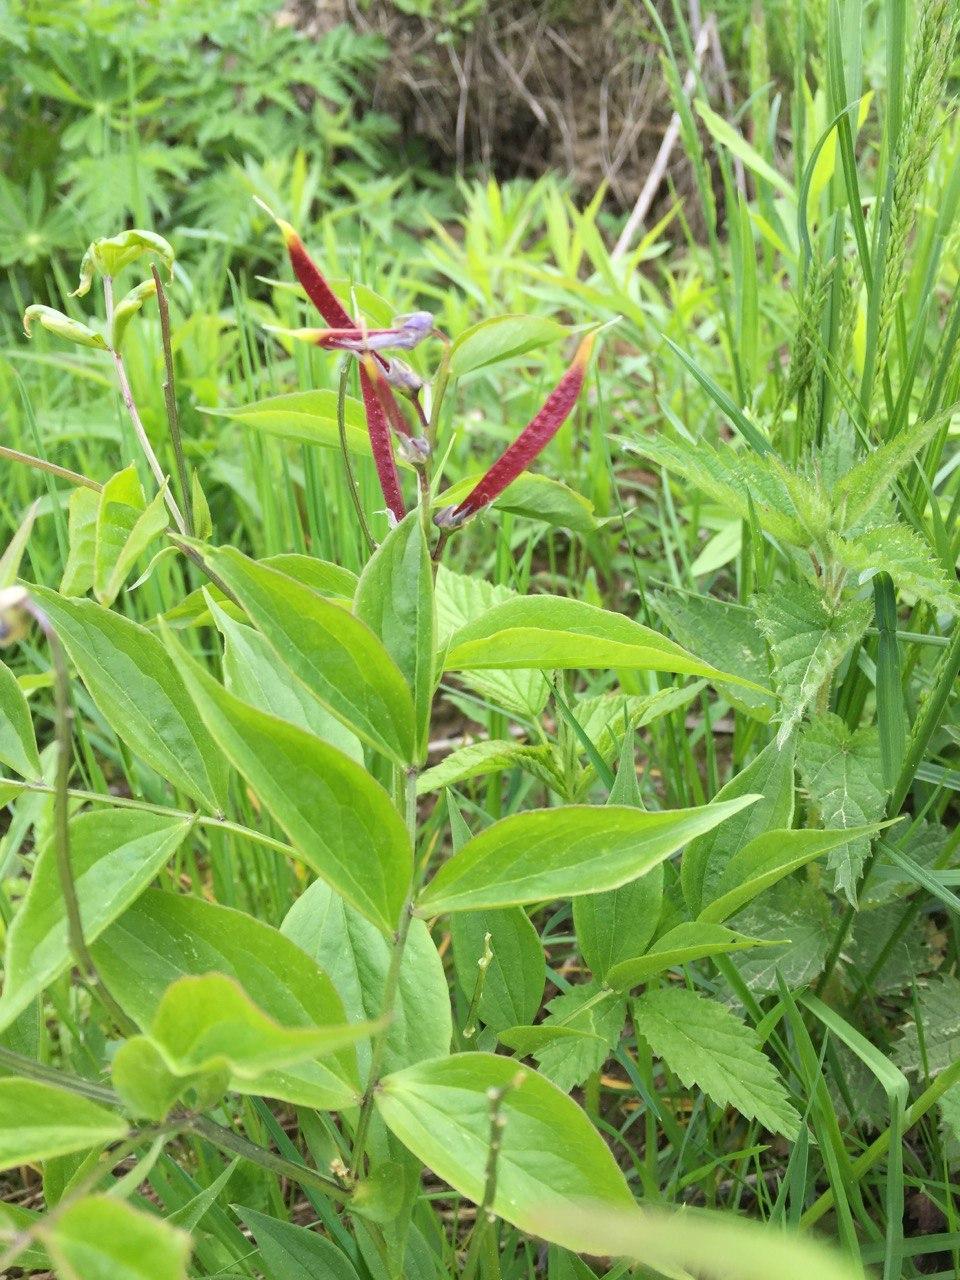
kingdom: Plantae
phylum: Tracheophyta
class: Magnoliopsida
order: Fabales
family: Fabaceae
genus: Lathyrus
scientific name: Lathyrus vernus
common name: Spring pea
